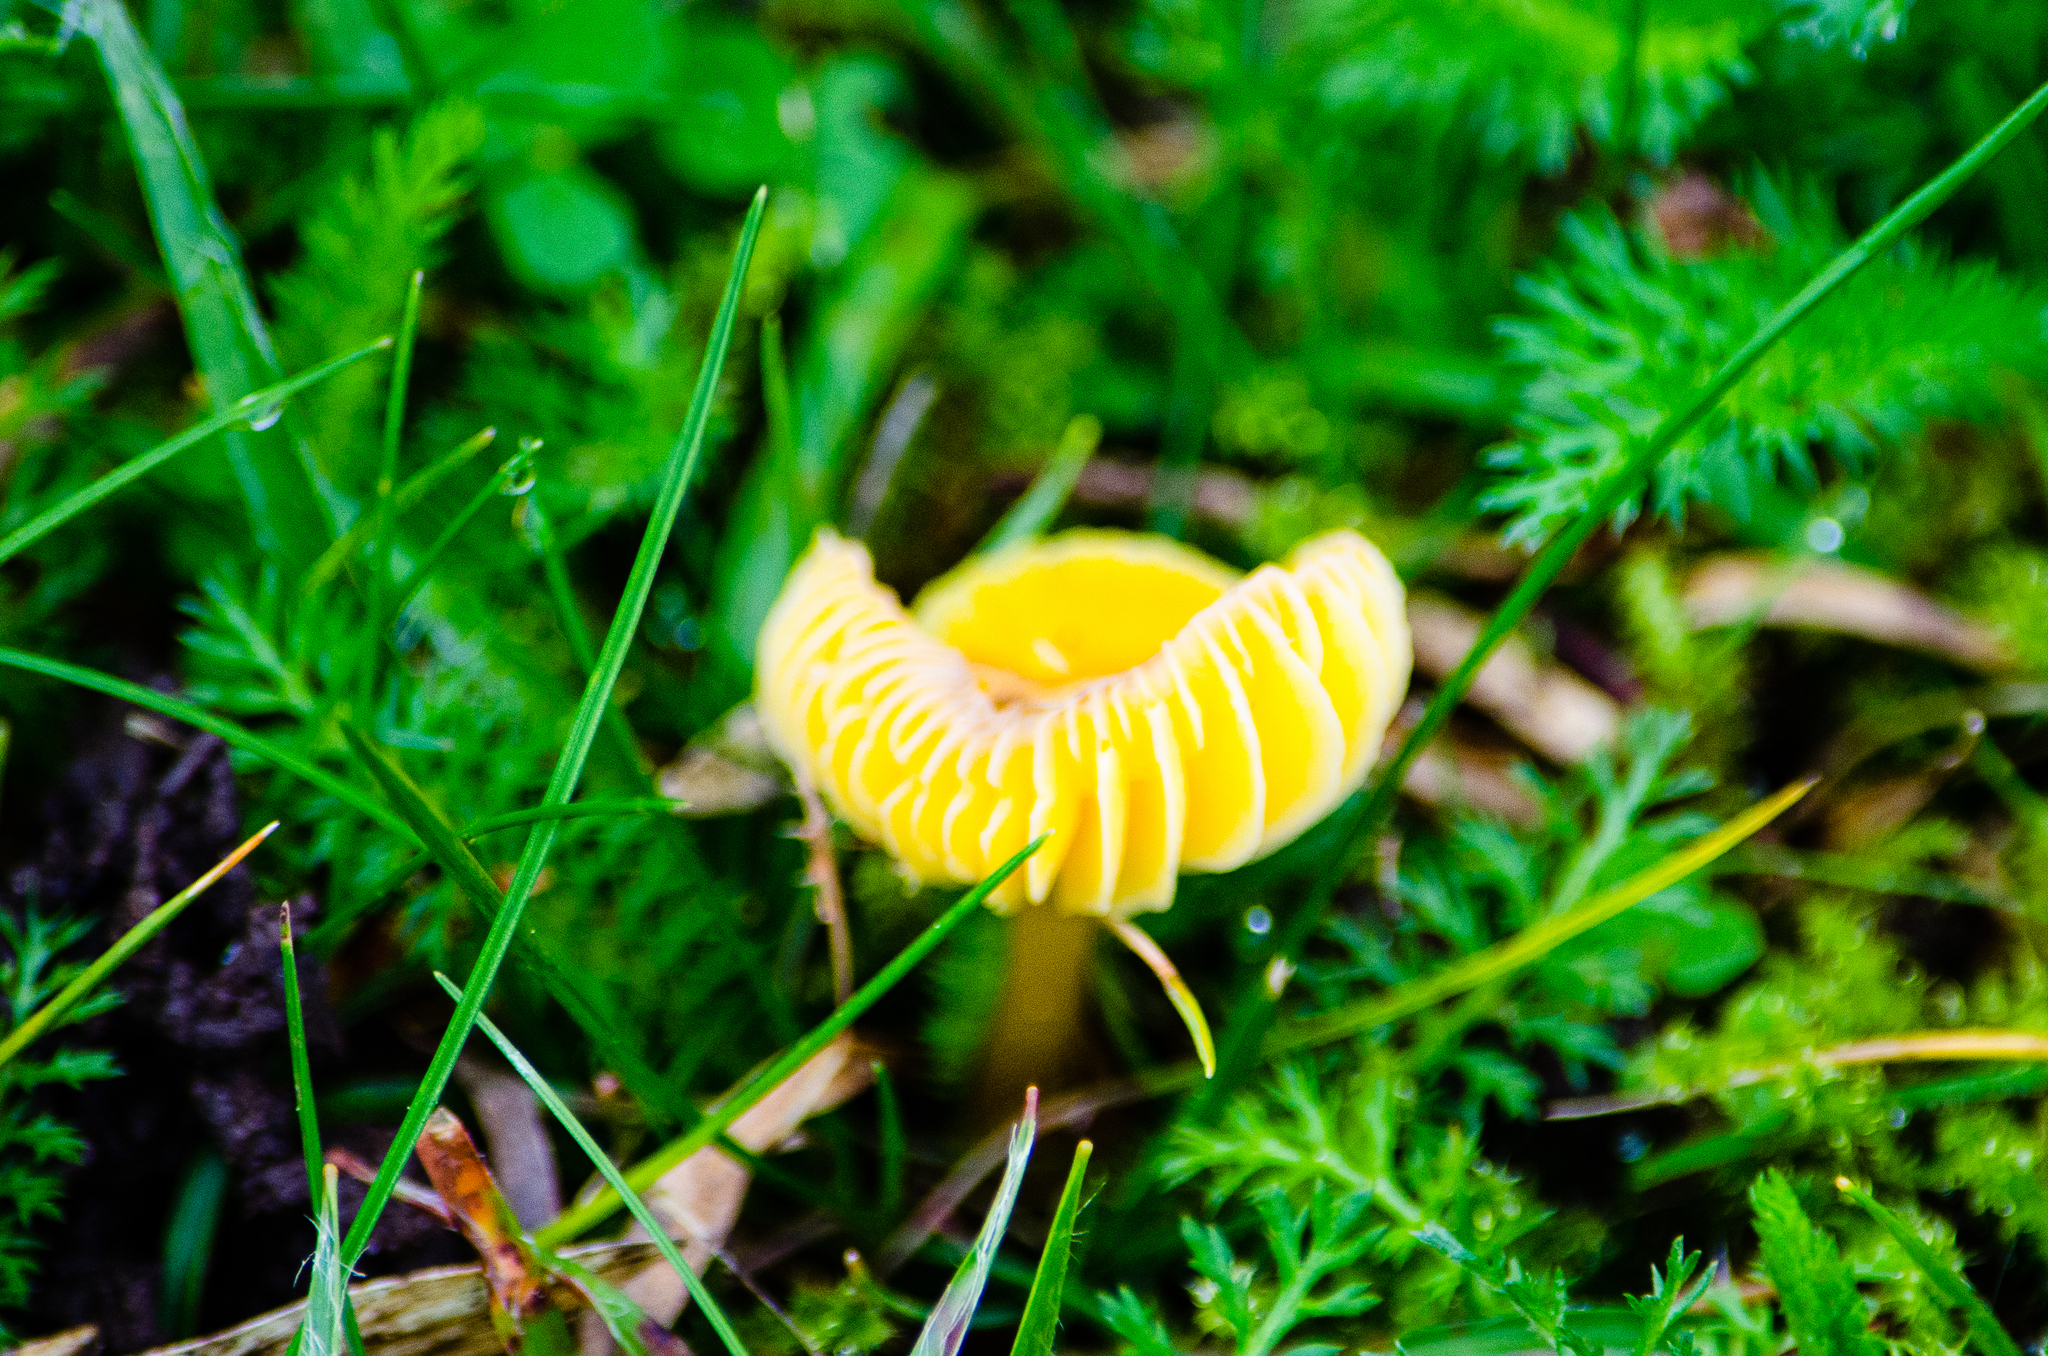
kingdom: Fungi
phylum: Basidiomycota
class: Agaricomycetes
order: Agaricales
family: Hygrophoraceae
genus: Hygrocybe
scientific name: Hygrocybe ceracea
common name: Butter waxcap
